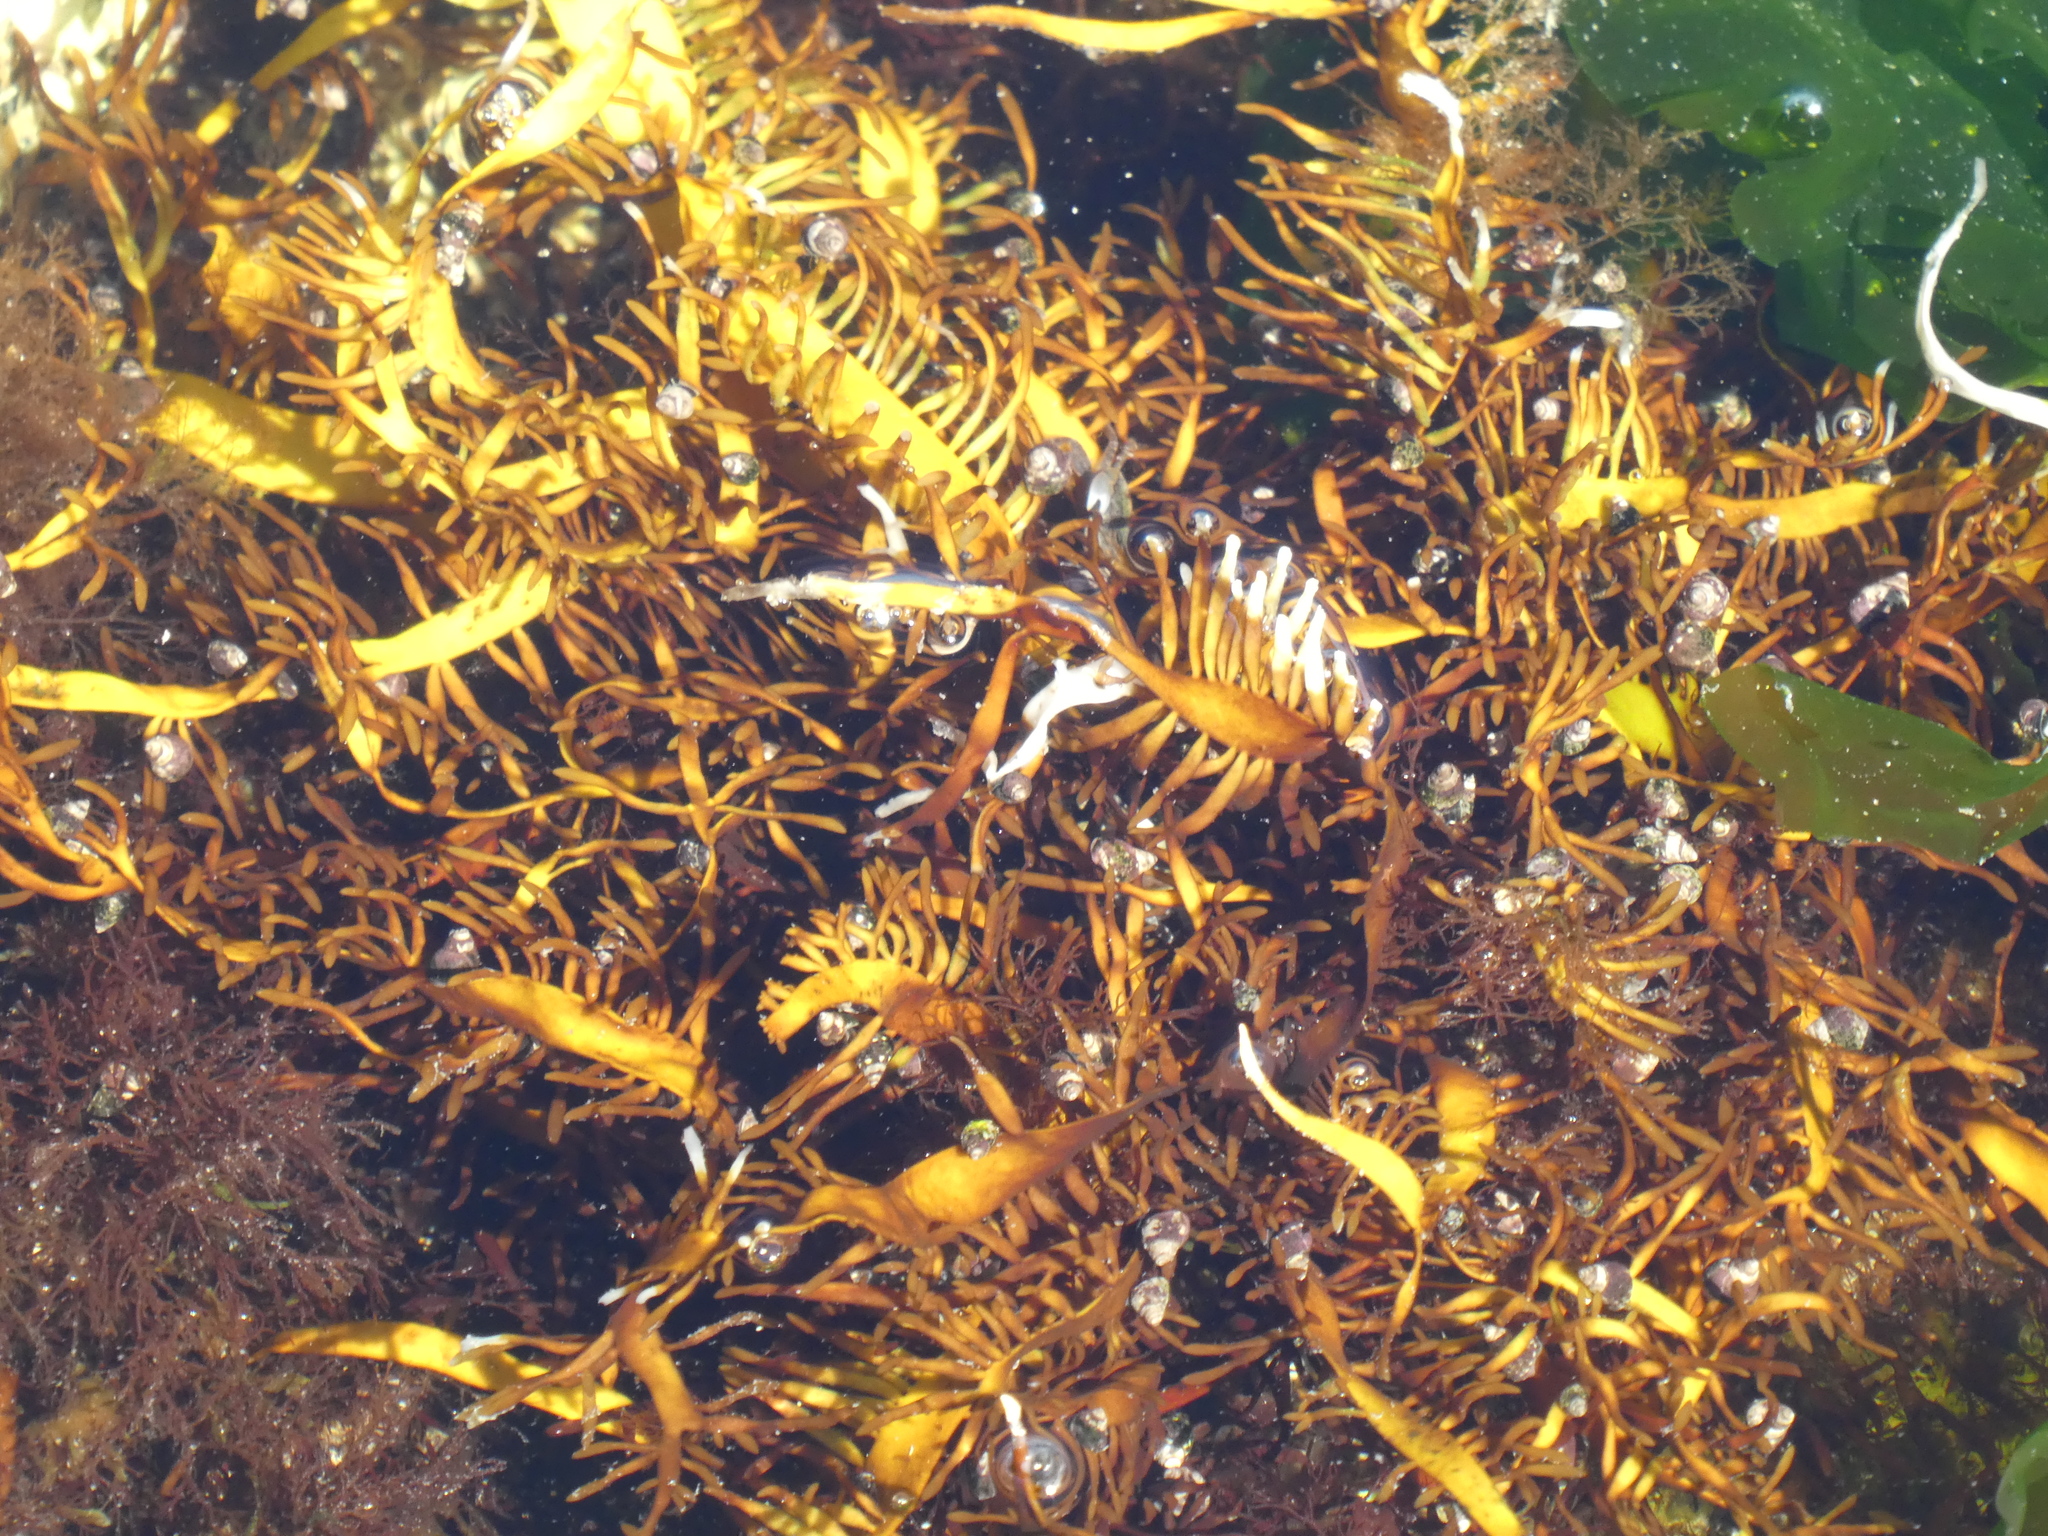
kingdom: Plantae
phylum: Rhodophyta
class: Florideophyceae
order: Halymeniales
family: Halymeniaceae
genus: Grateloupia
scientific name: Grateloupia Prionitis lanceolata
